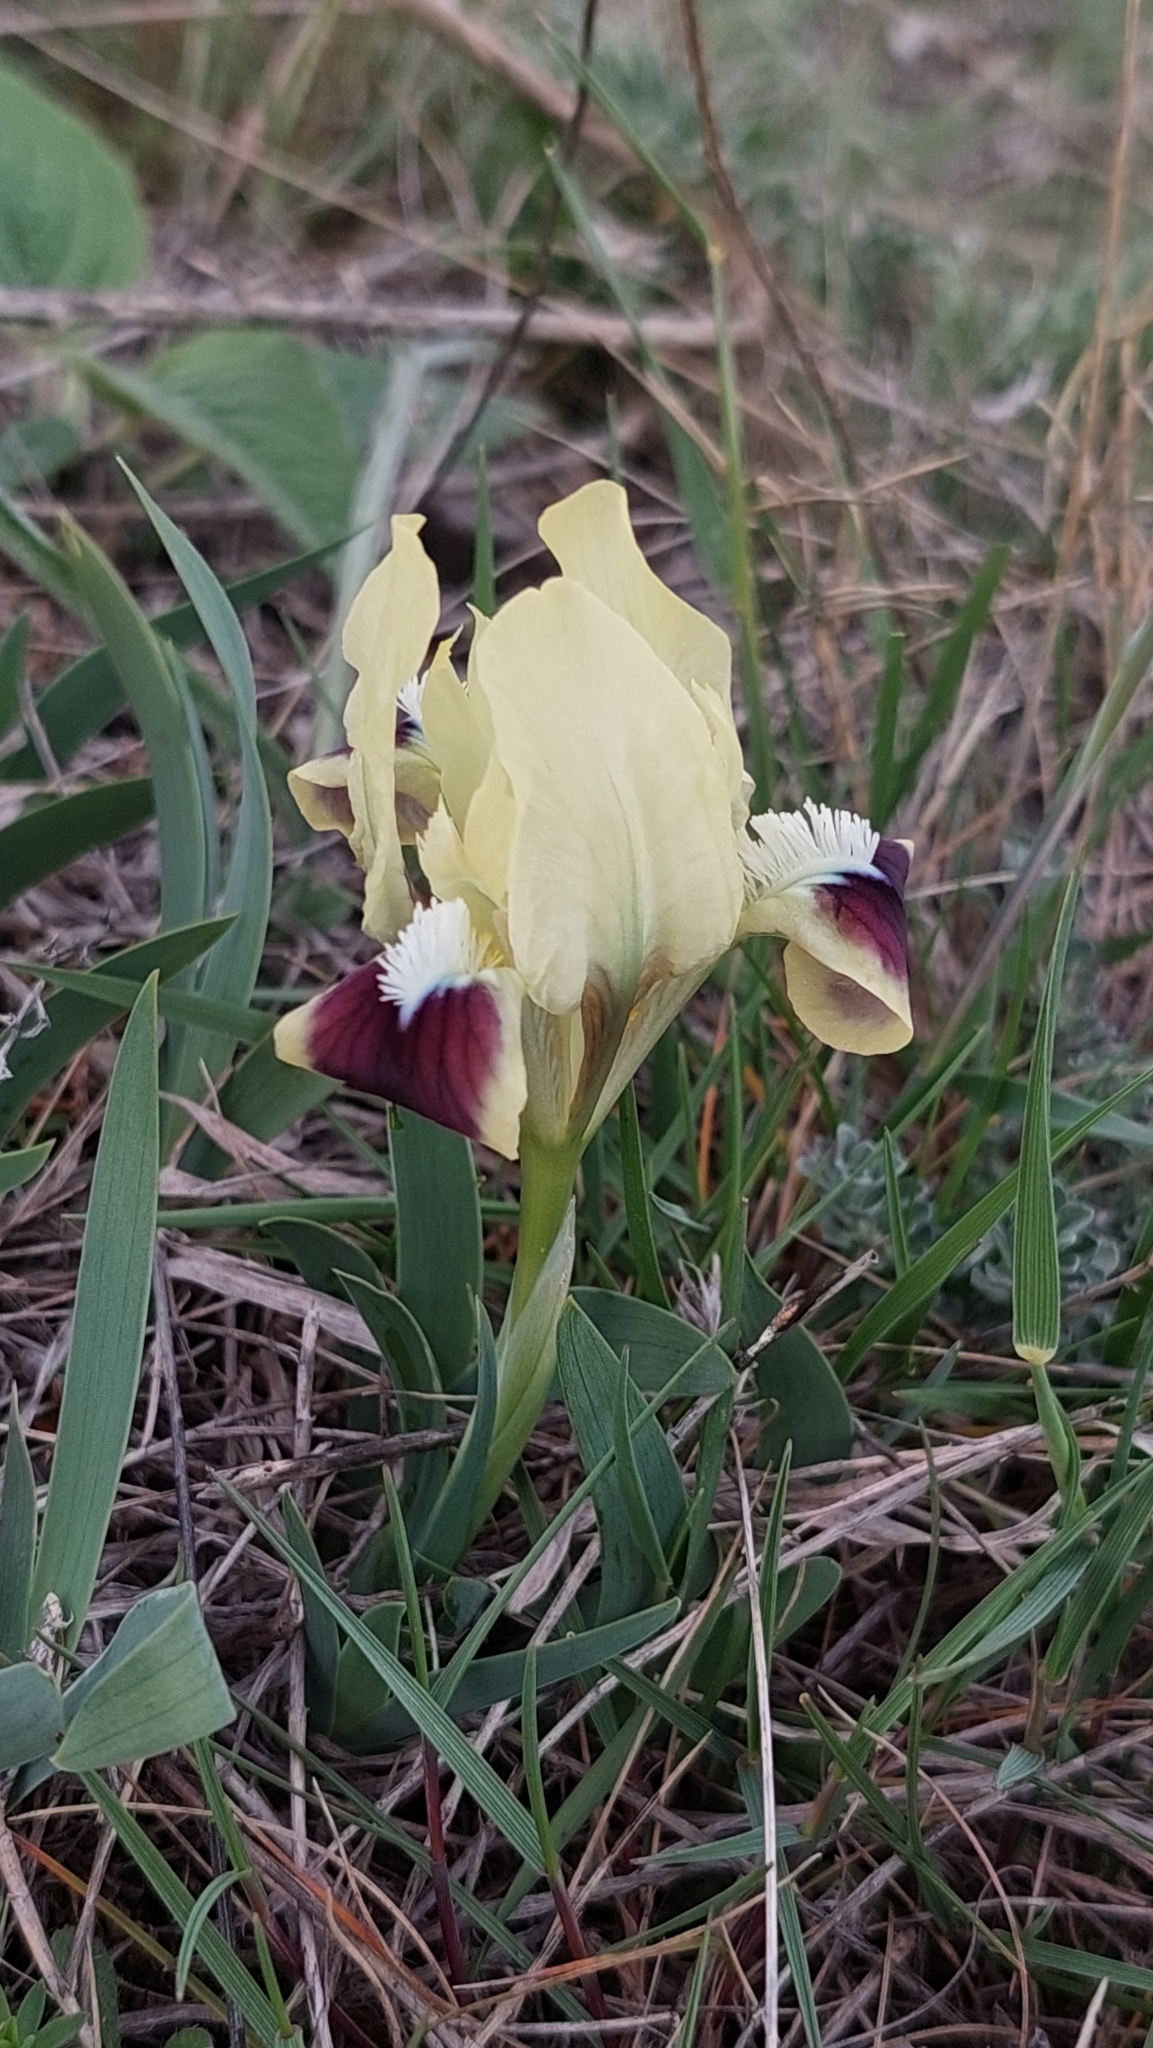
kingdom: Plantae
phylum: Tracheophyta
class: Liliopsida
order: Asparagales
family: Iridaceae
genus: Iris
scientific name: Iris pumila
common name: Dwarf iris
